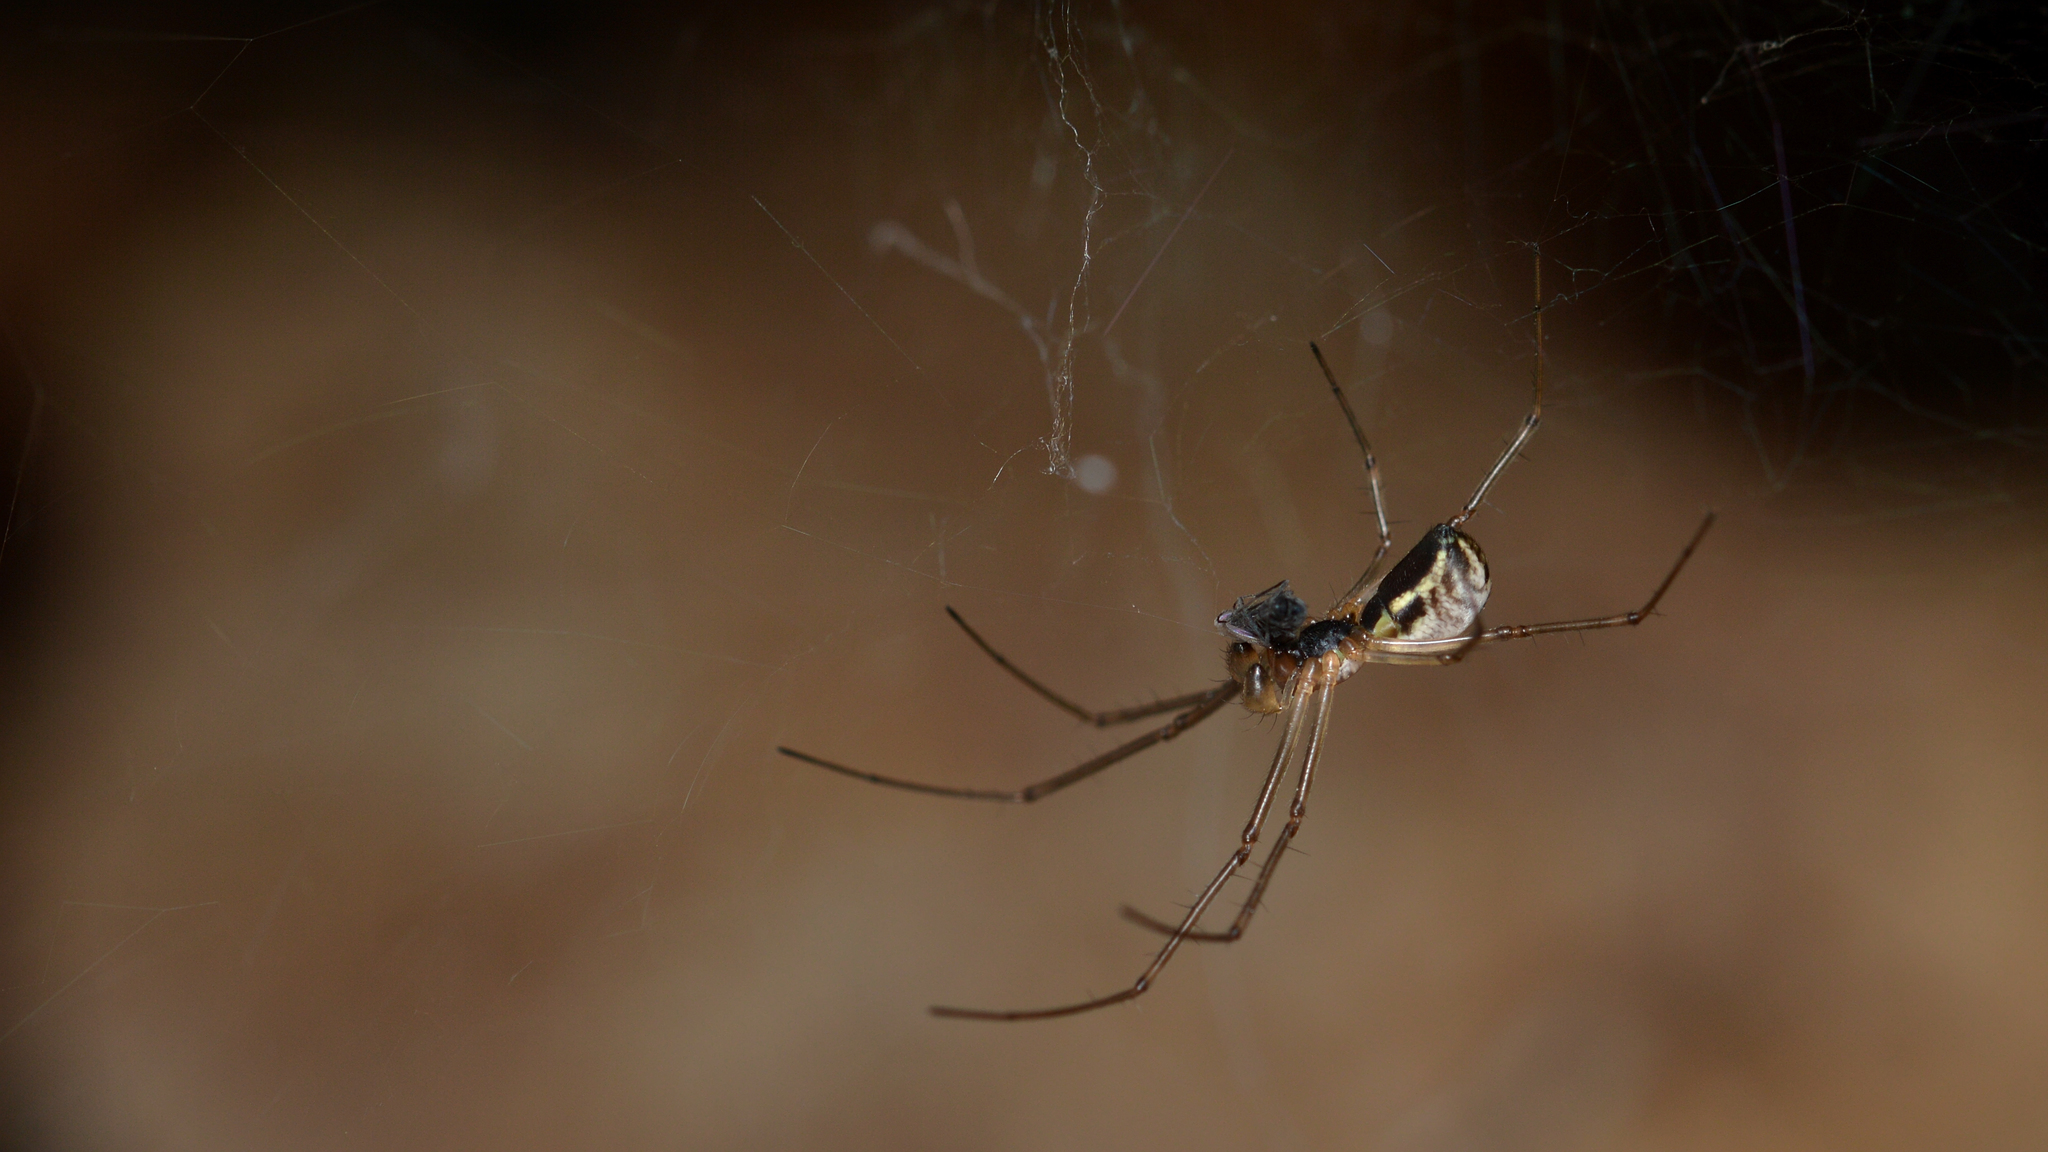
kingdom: Animalia
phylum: Arthropoda
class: Arachnida
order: Araneae
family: Linyphiidae
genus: Neriene
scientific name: Neriene radiata
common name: Filmy dome spider
